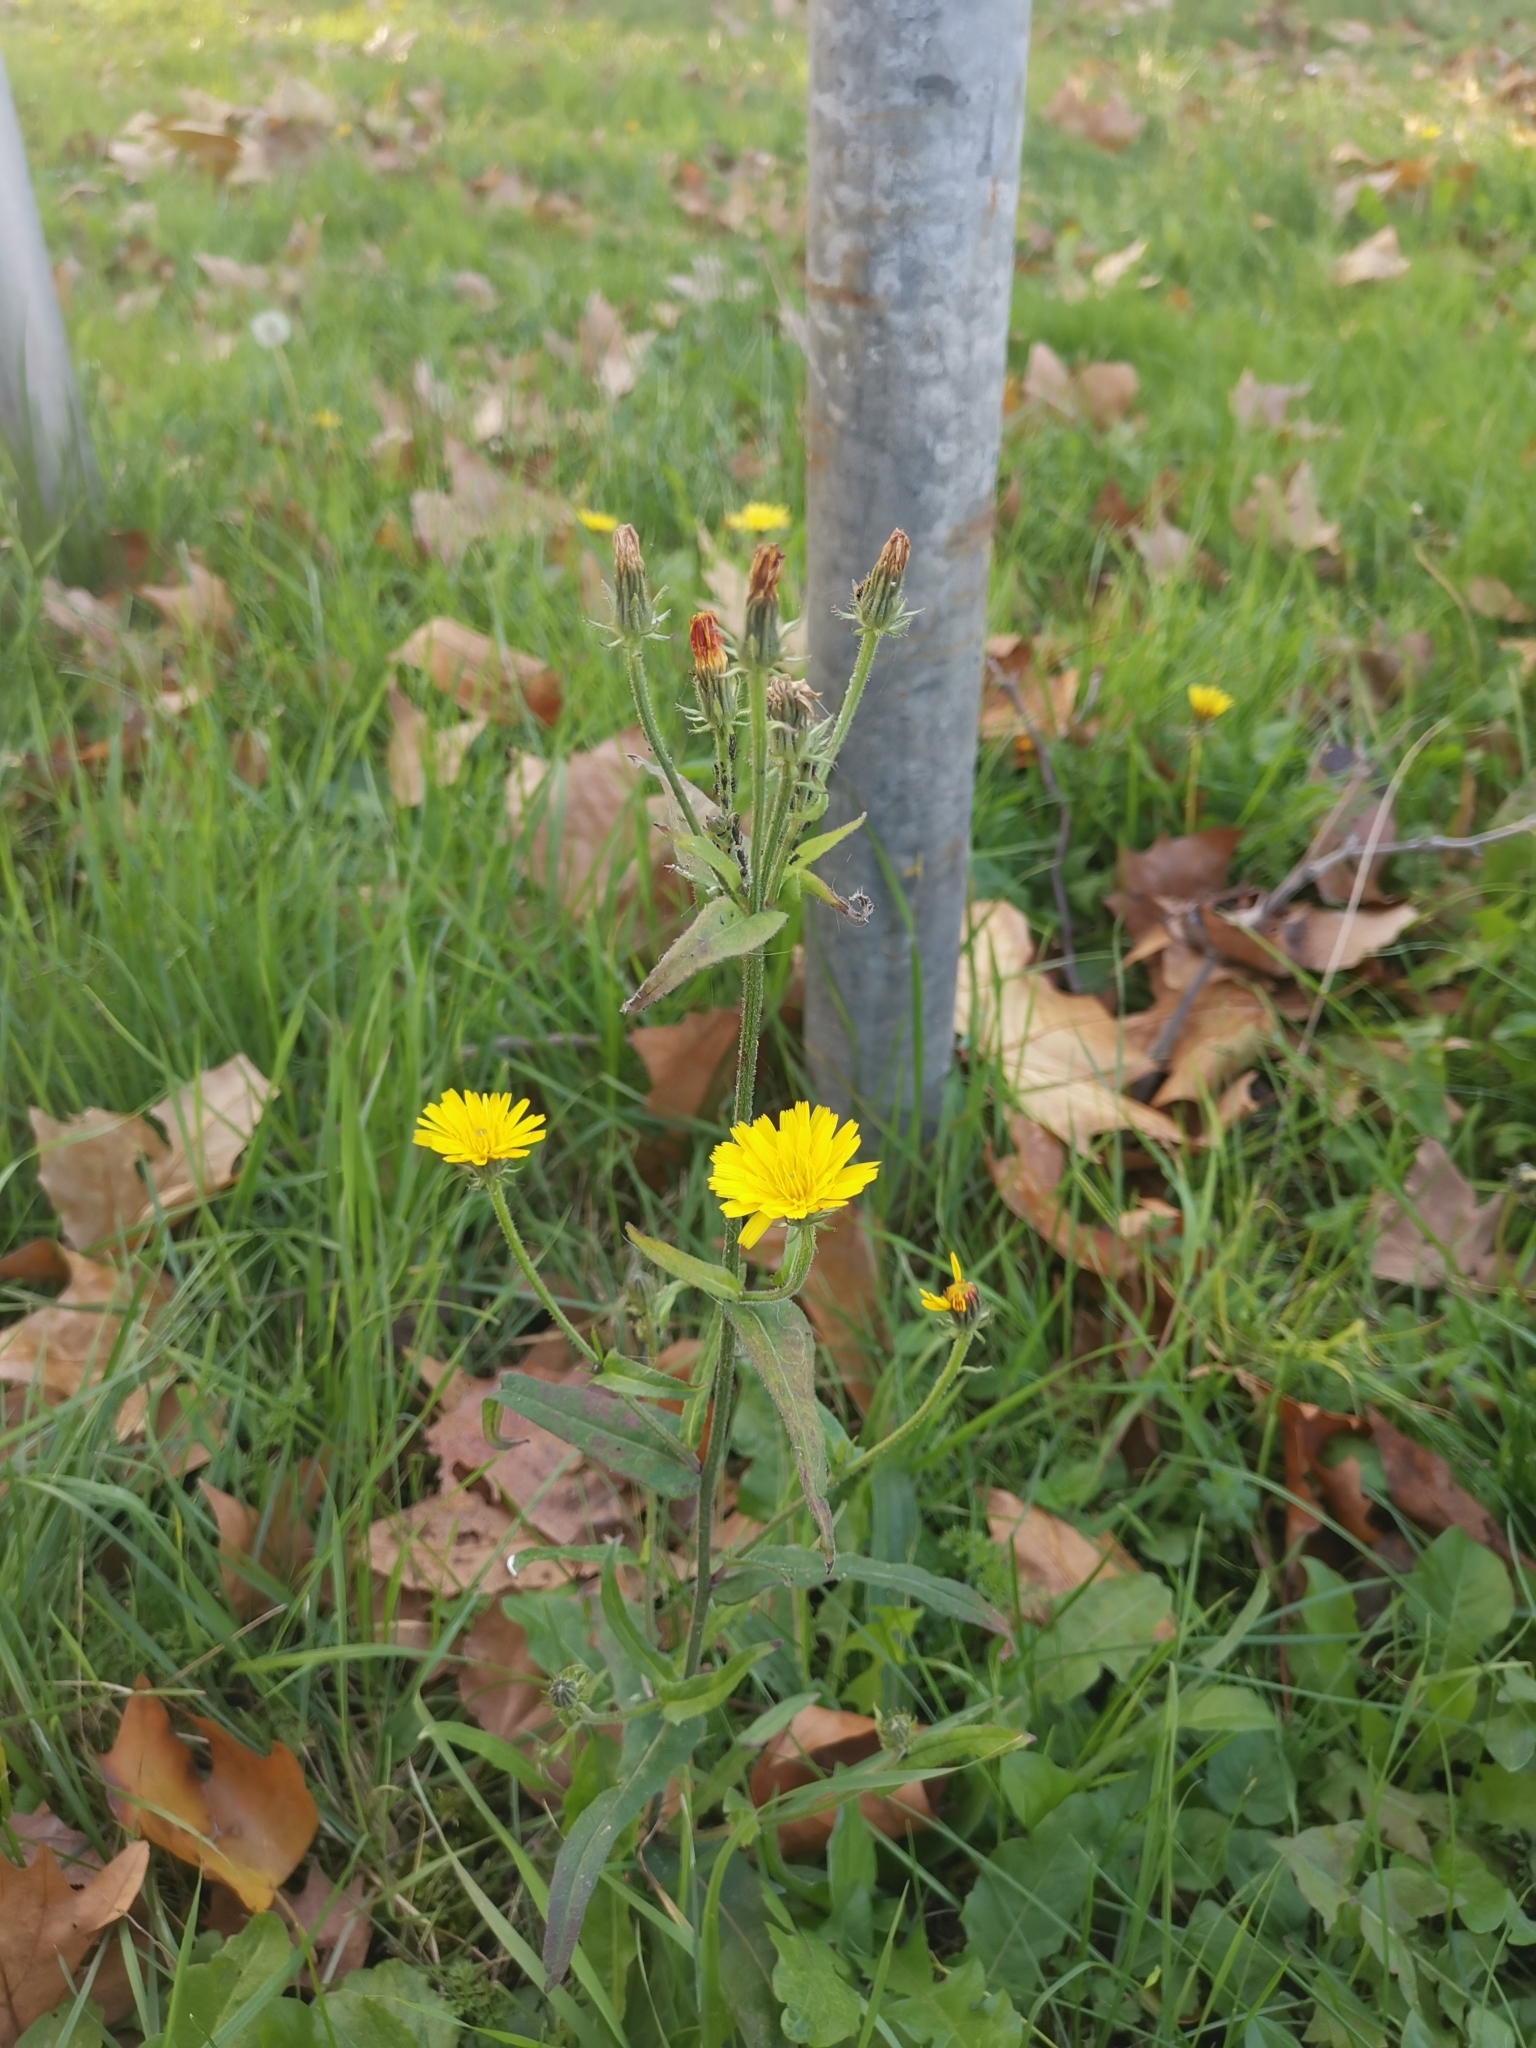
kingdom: Plantae
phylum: Tracheophyta
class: Magnoliopsida
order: Asterales
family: Asteraceae
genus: Picris
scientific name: Picris hieracioides
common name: Hawkweed oxtongue
